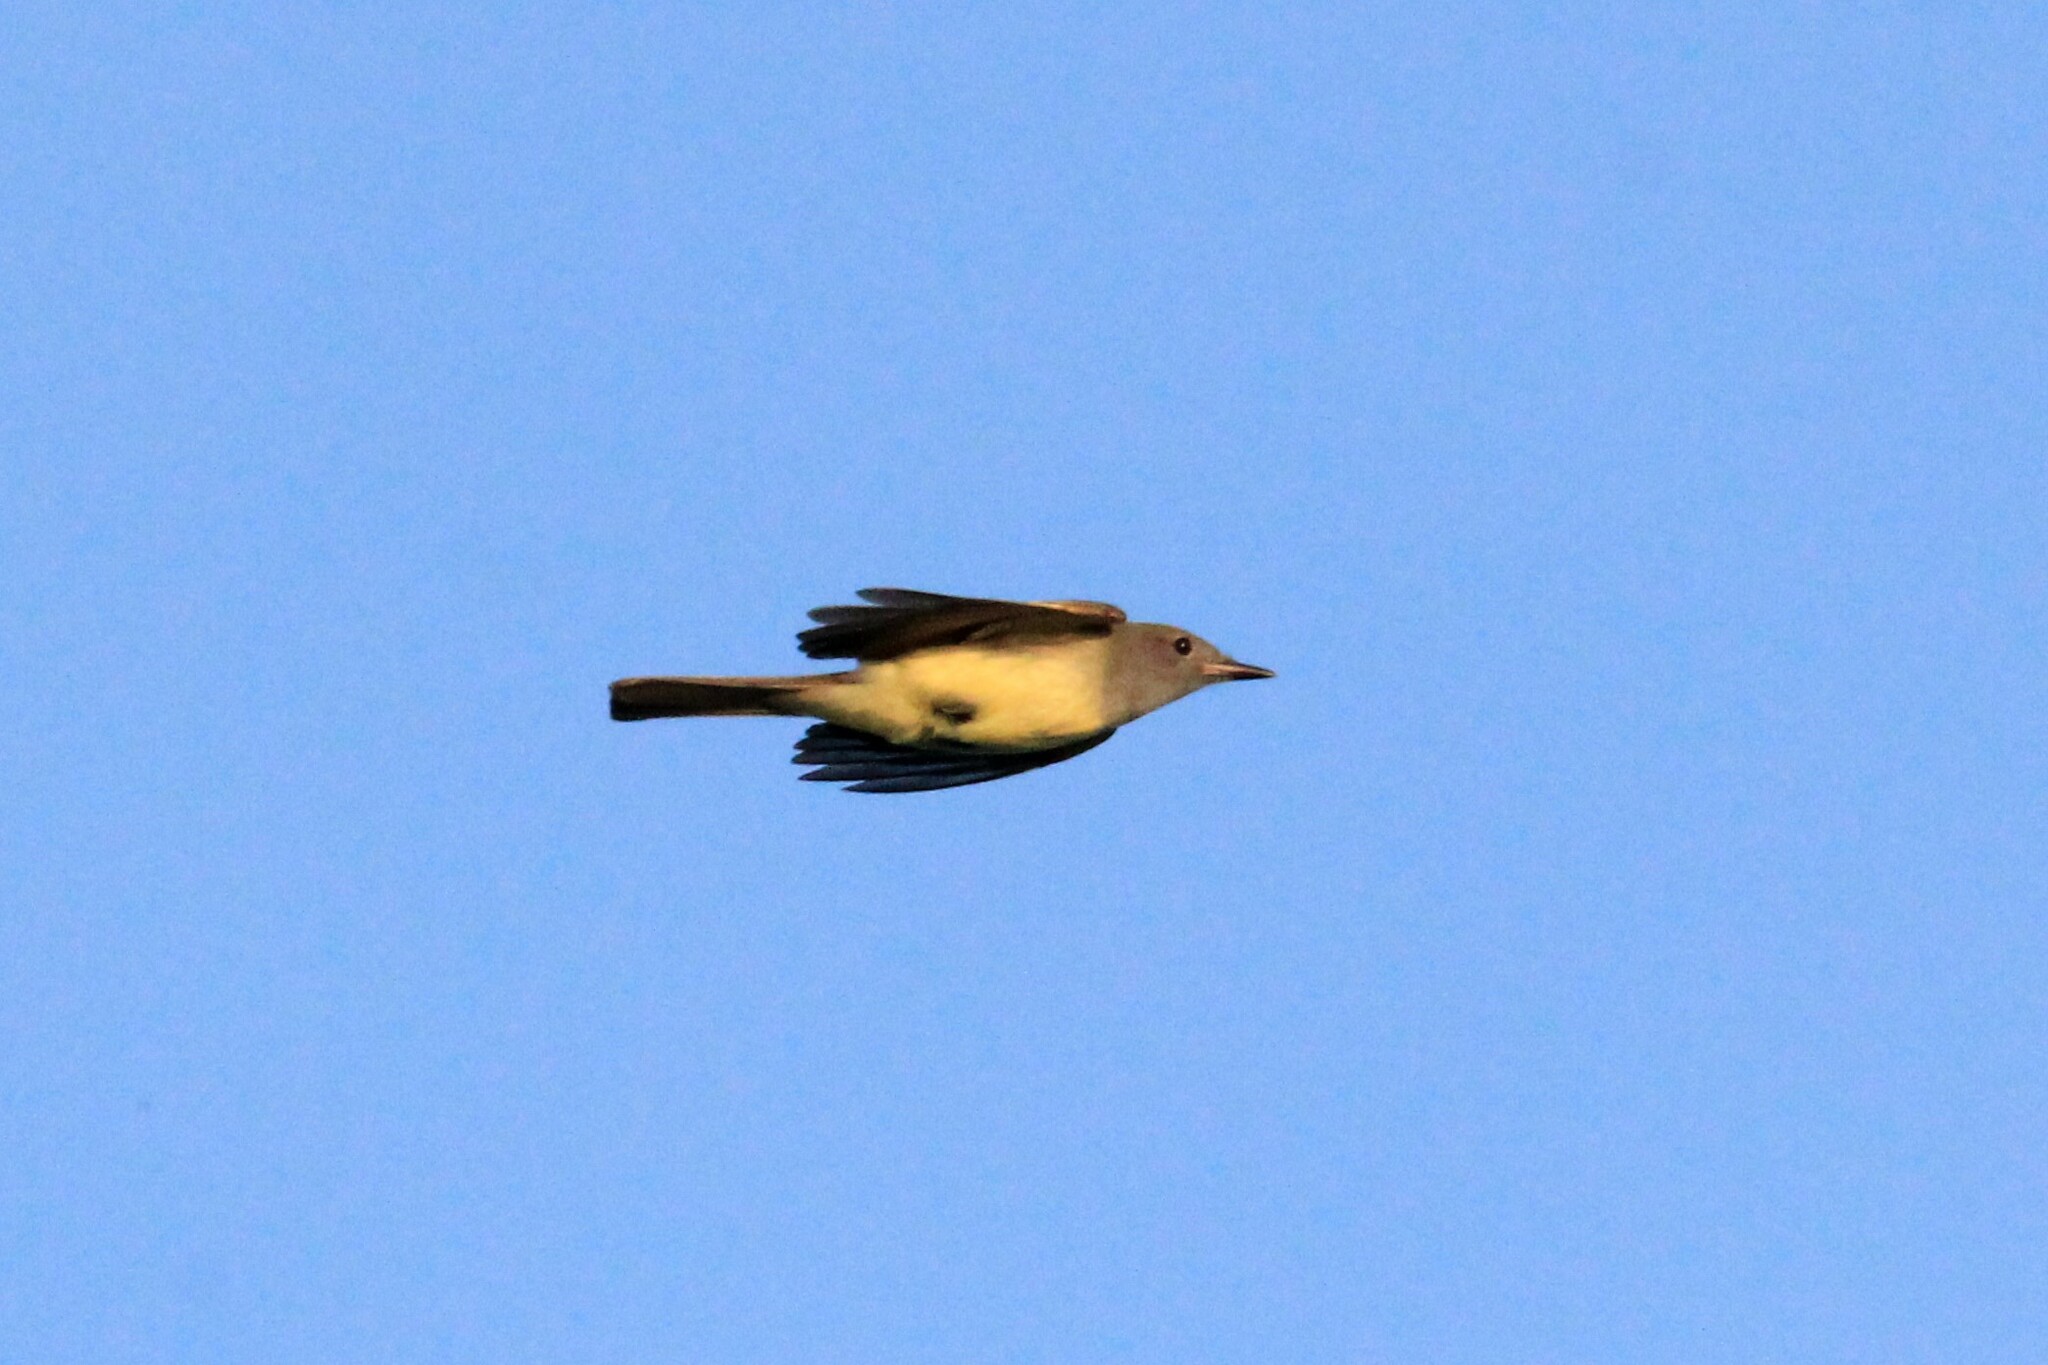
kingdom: Animalia
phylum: Chordata
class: Aves
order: Passeriformes
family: Tyrannidae
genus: Myiarchus
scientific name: Myiarchus crinitus
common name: Great crested flycatcher
